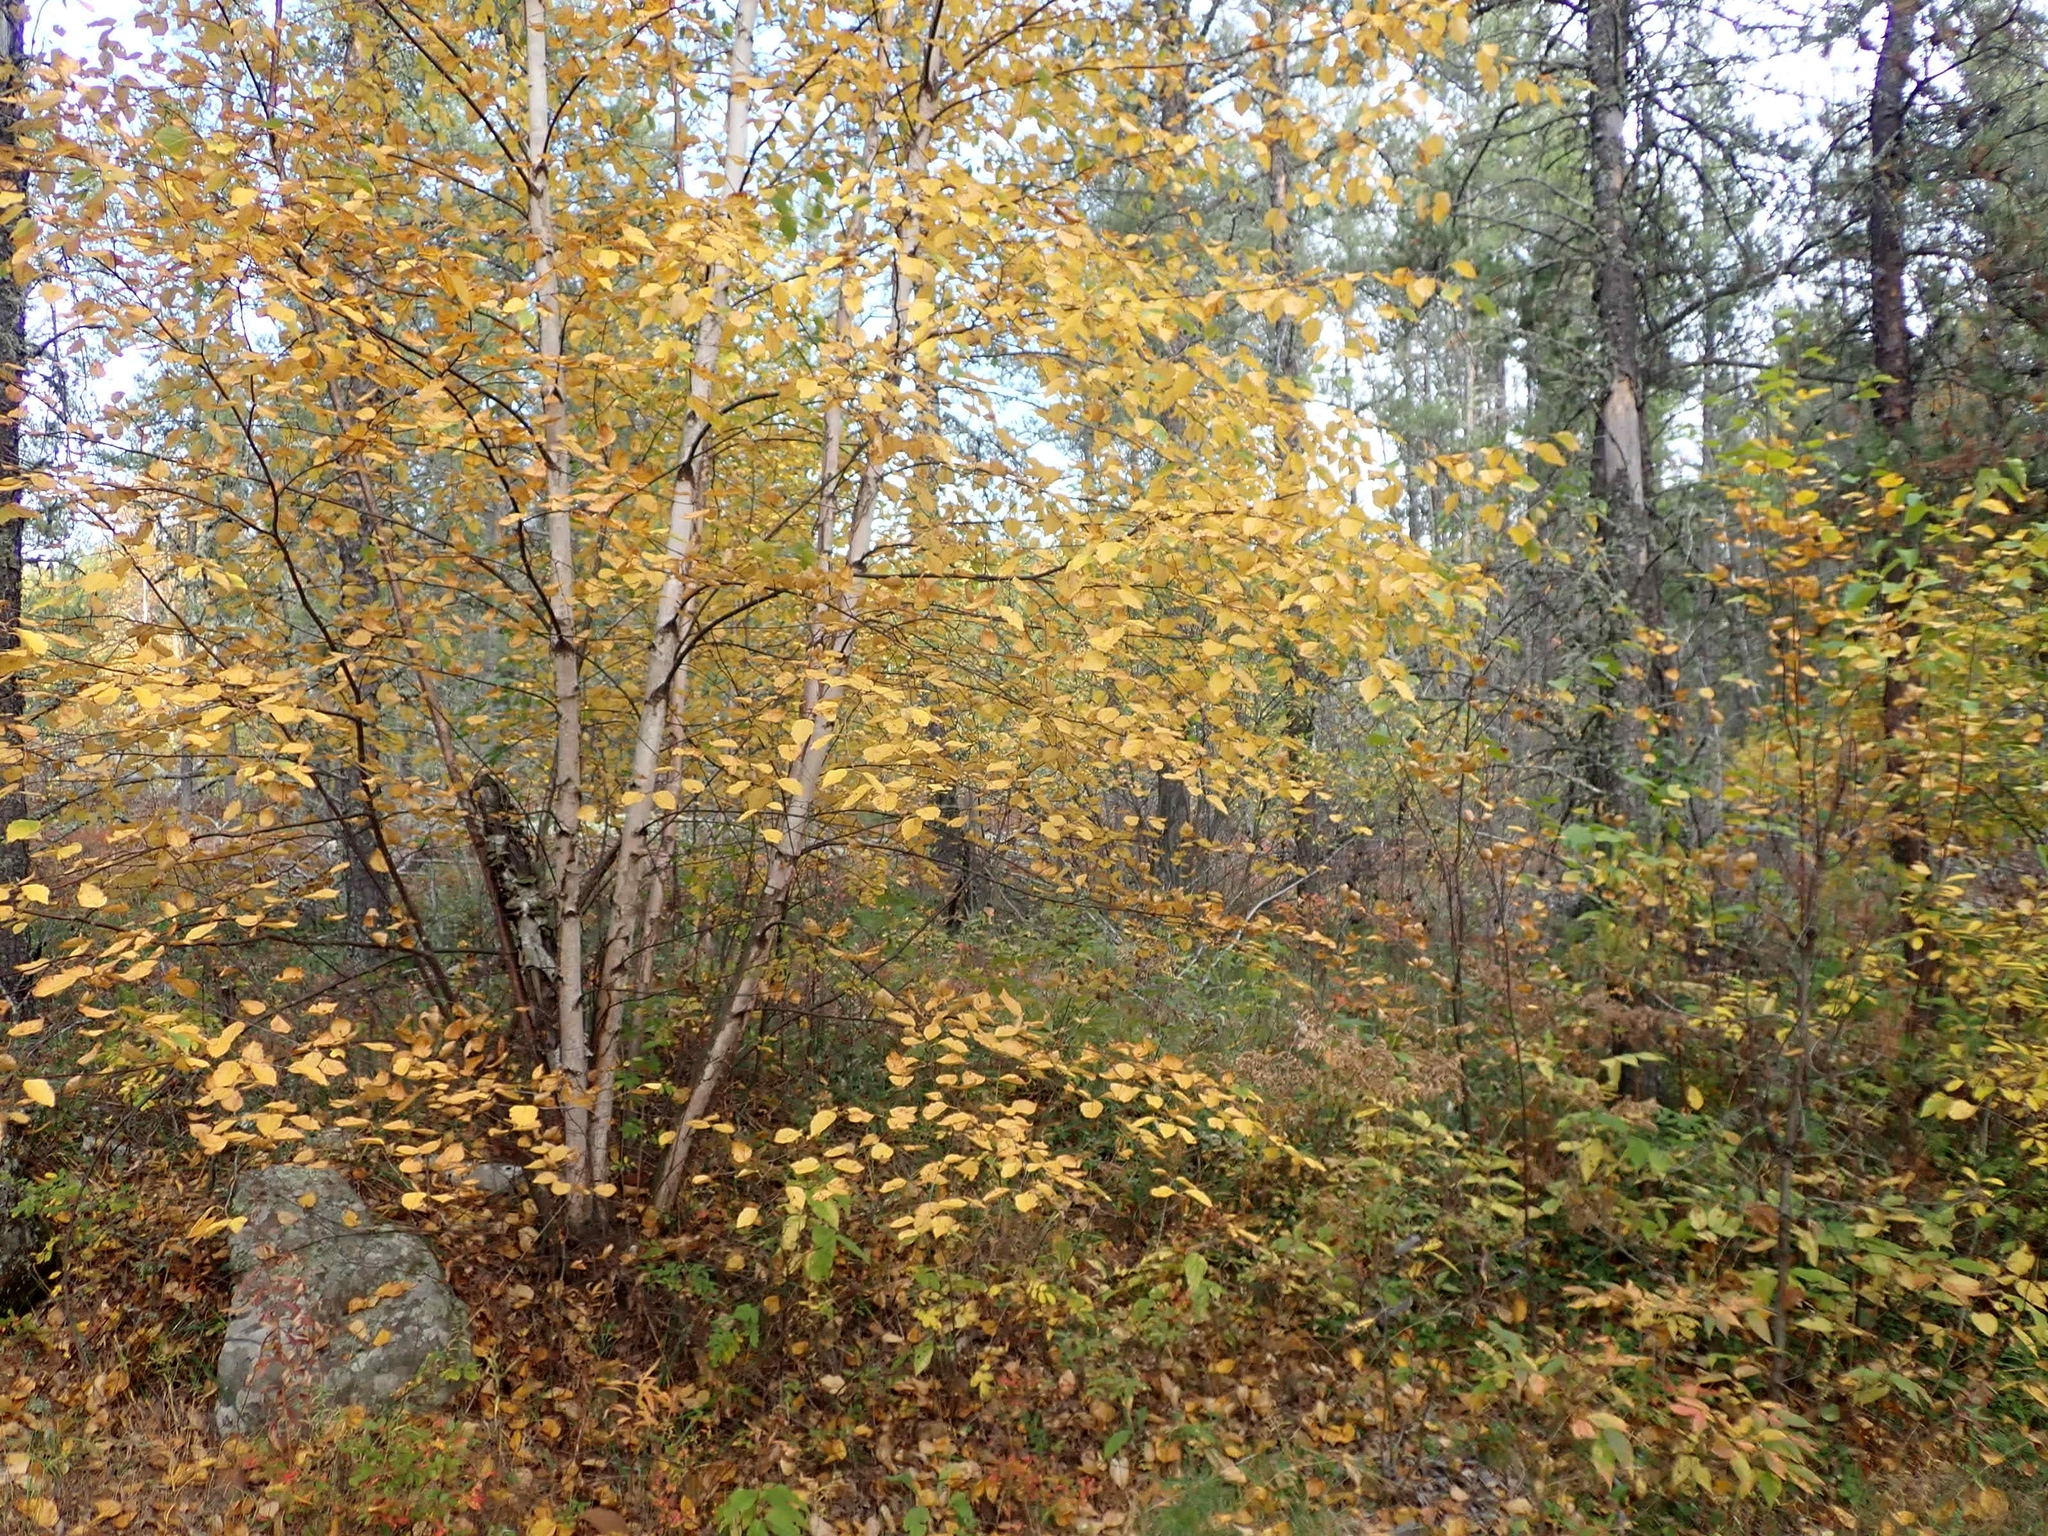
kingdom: Plantae
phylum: Tracheophyta
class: Magnoliopsida
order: Fagales
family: Betulaceae
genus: Betula
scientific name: Betula papyrifera
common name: Paper birch
